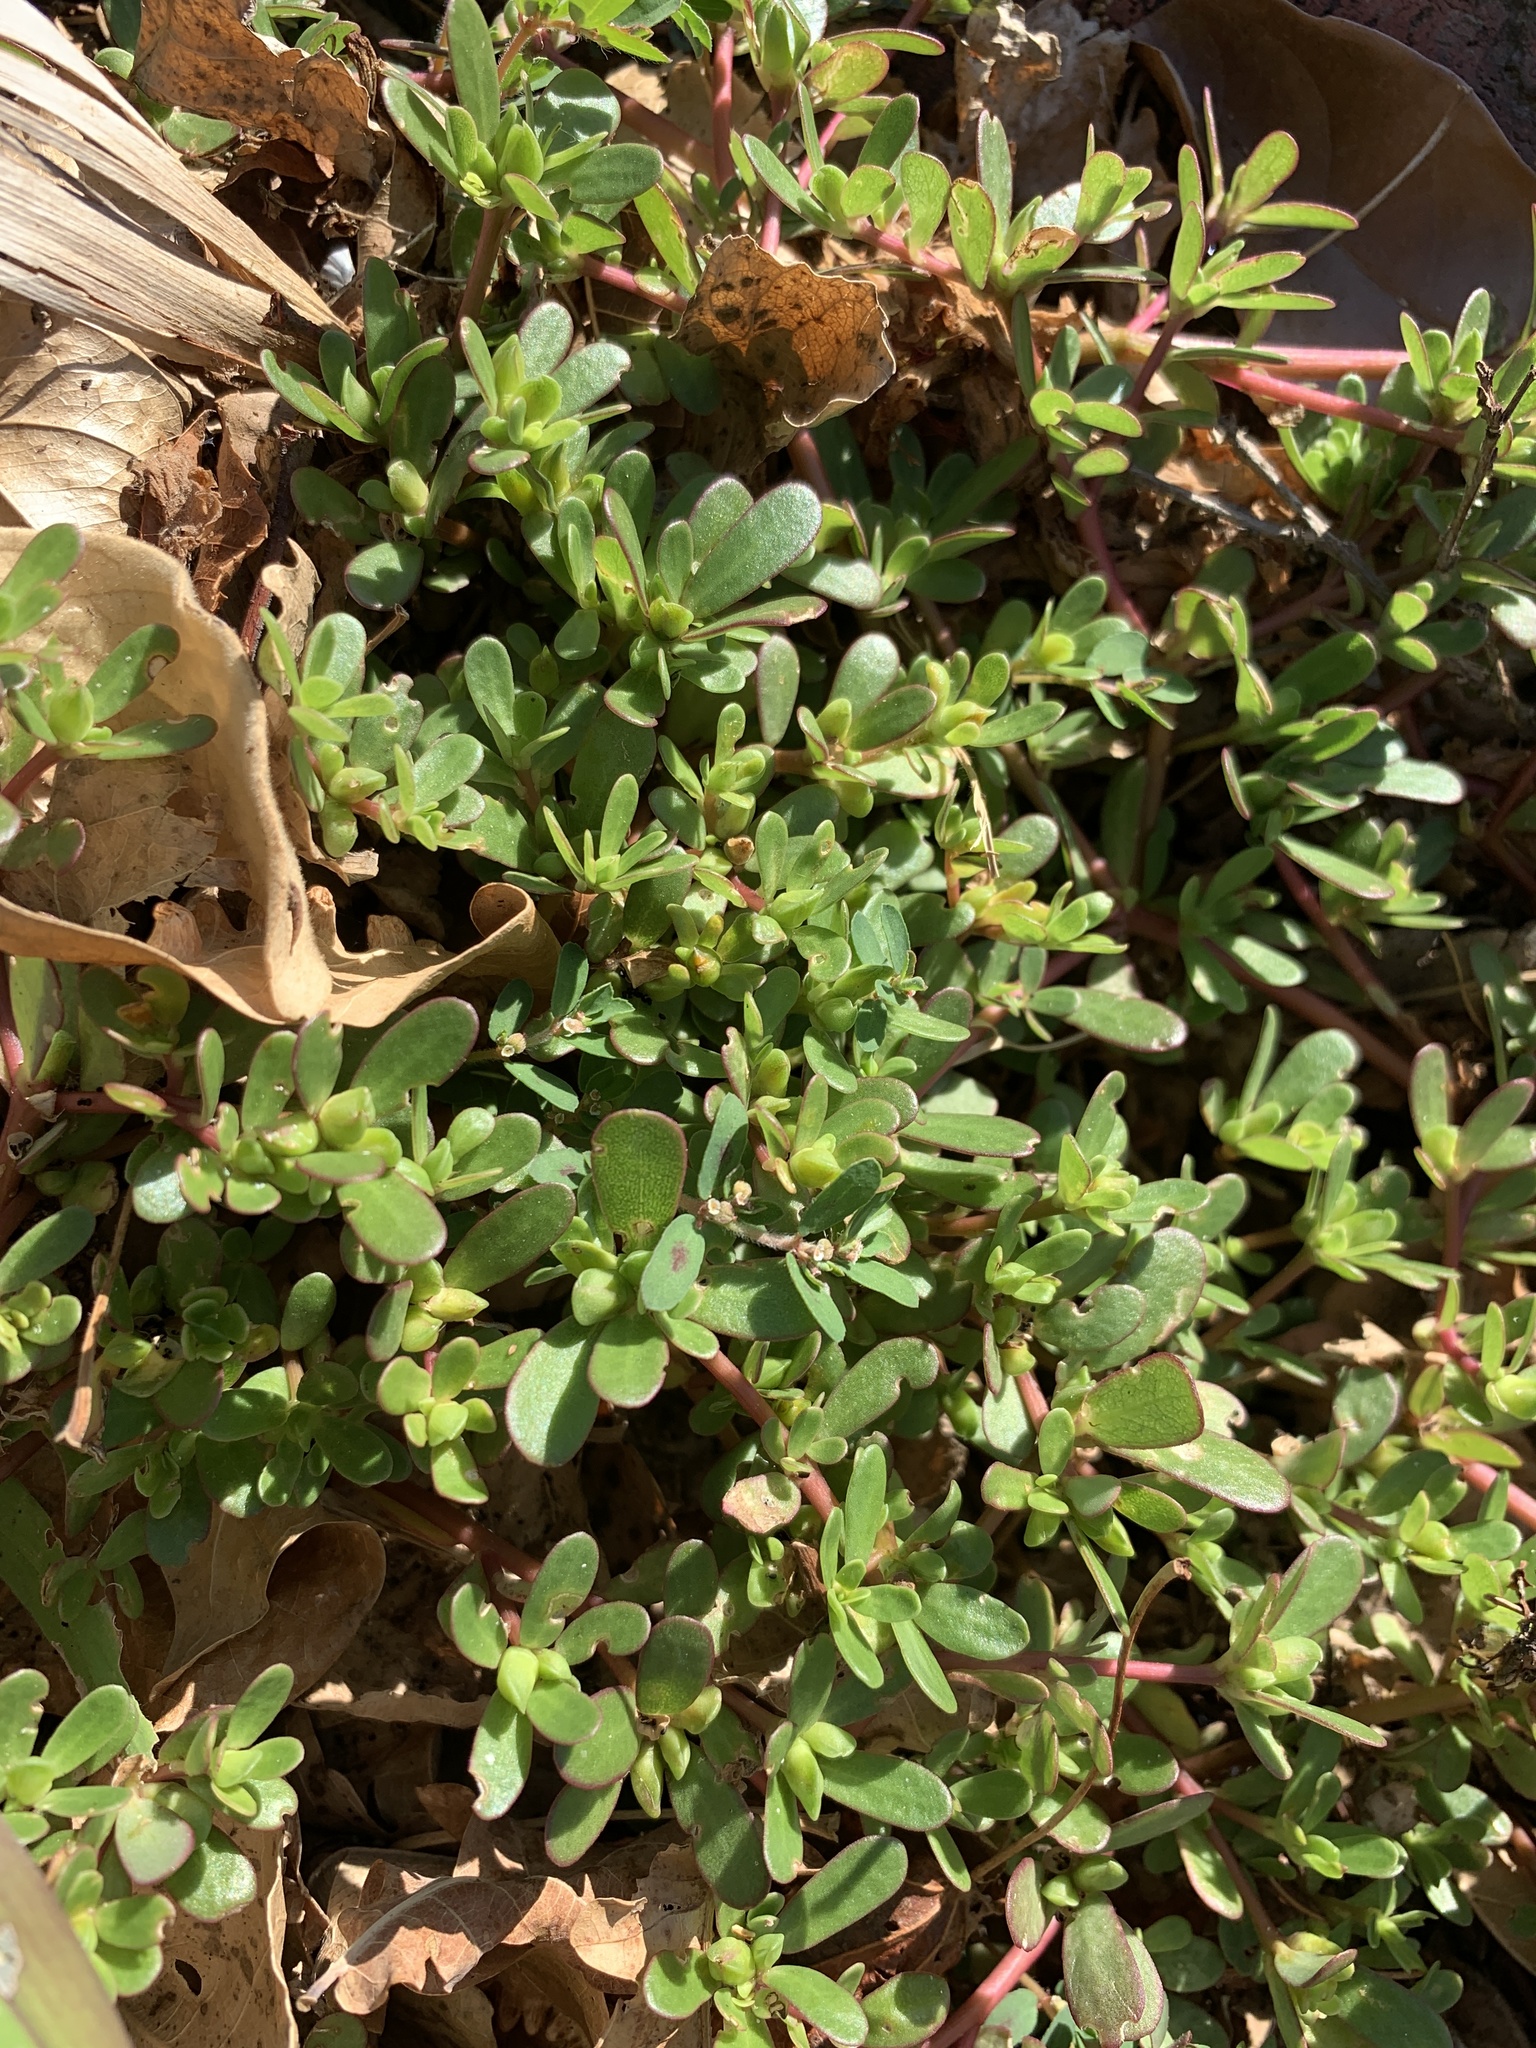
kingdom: Plantae
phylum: Tracheophyta
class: Magnoliopsida
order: Caryophyllales
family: Portulacaceae
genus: Portulaca
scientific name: Portulaca oleracea
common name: Common purslane
